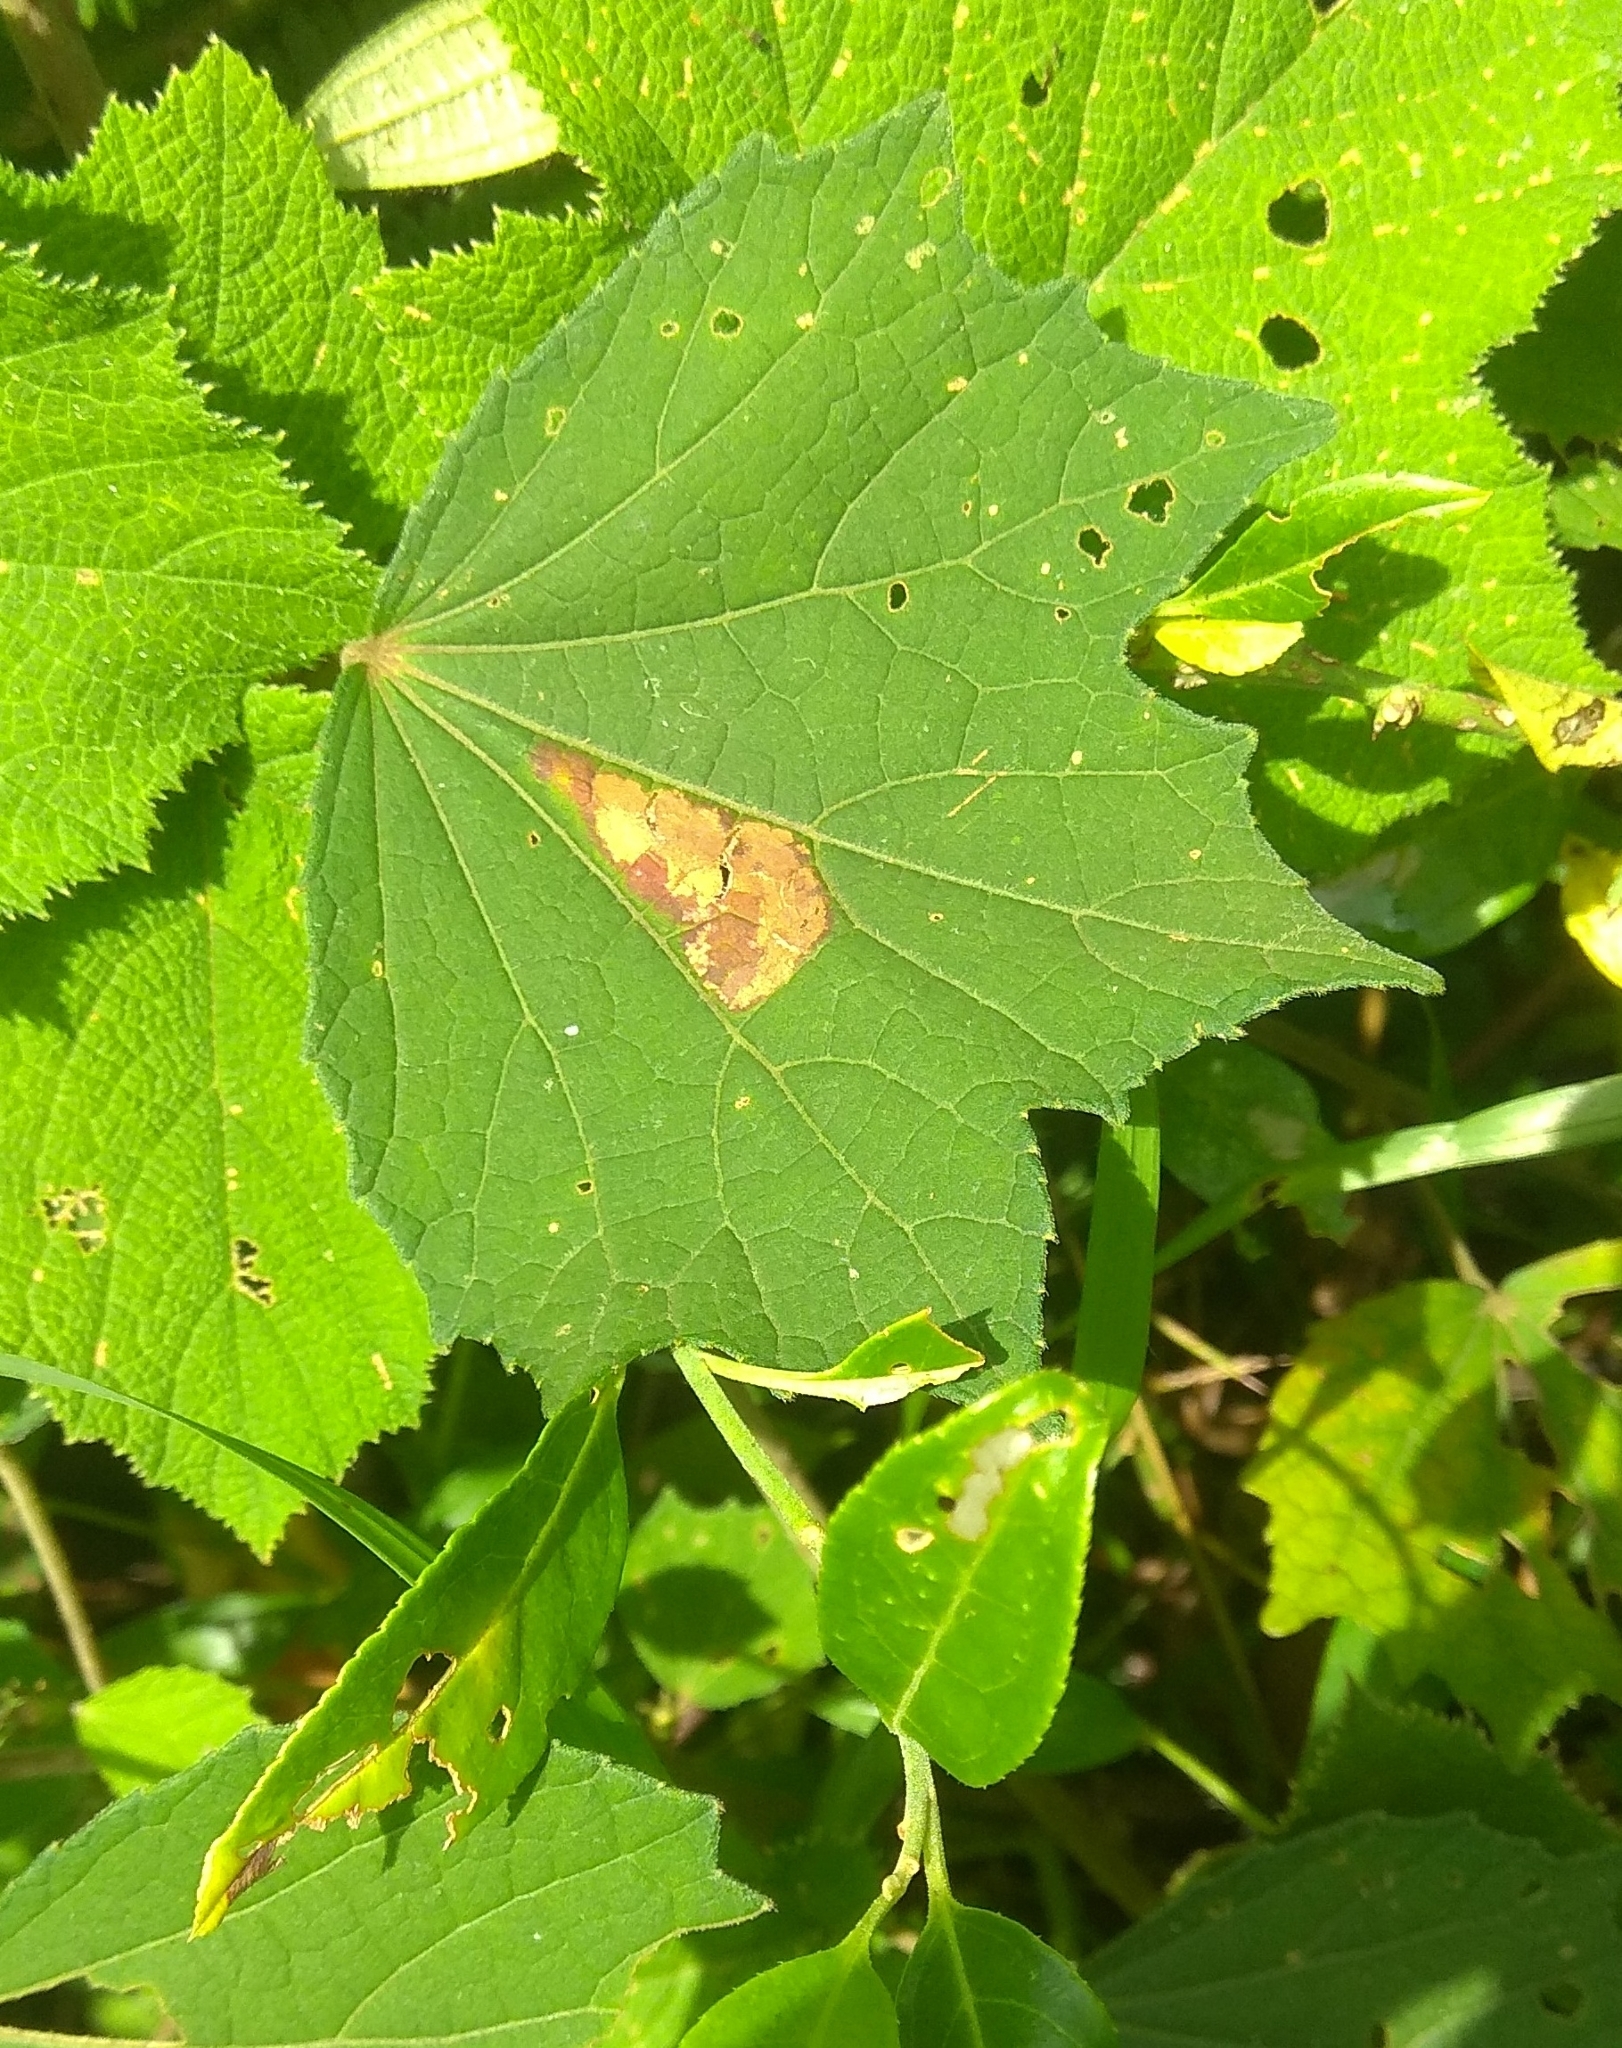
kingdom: Plantae
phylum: Tracheophyta
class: Magnoliopsida
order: Malvales
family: Malvaceae
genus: Urena
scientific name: Urena lobata
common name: Caesarweed
